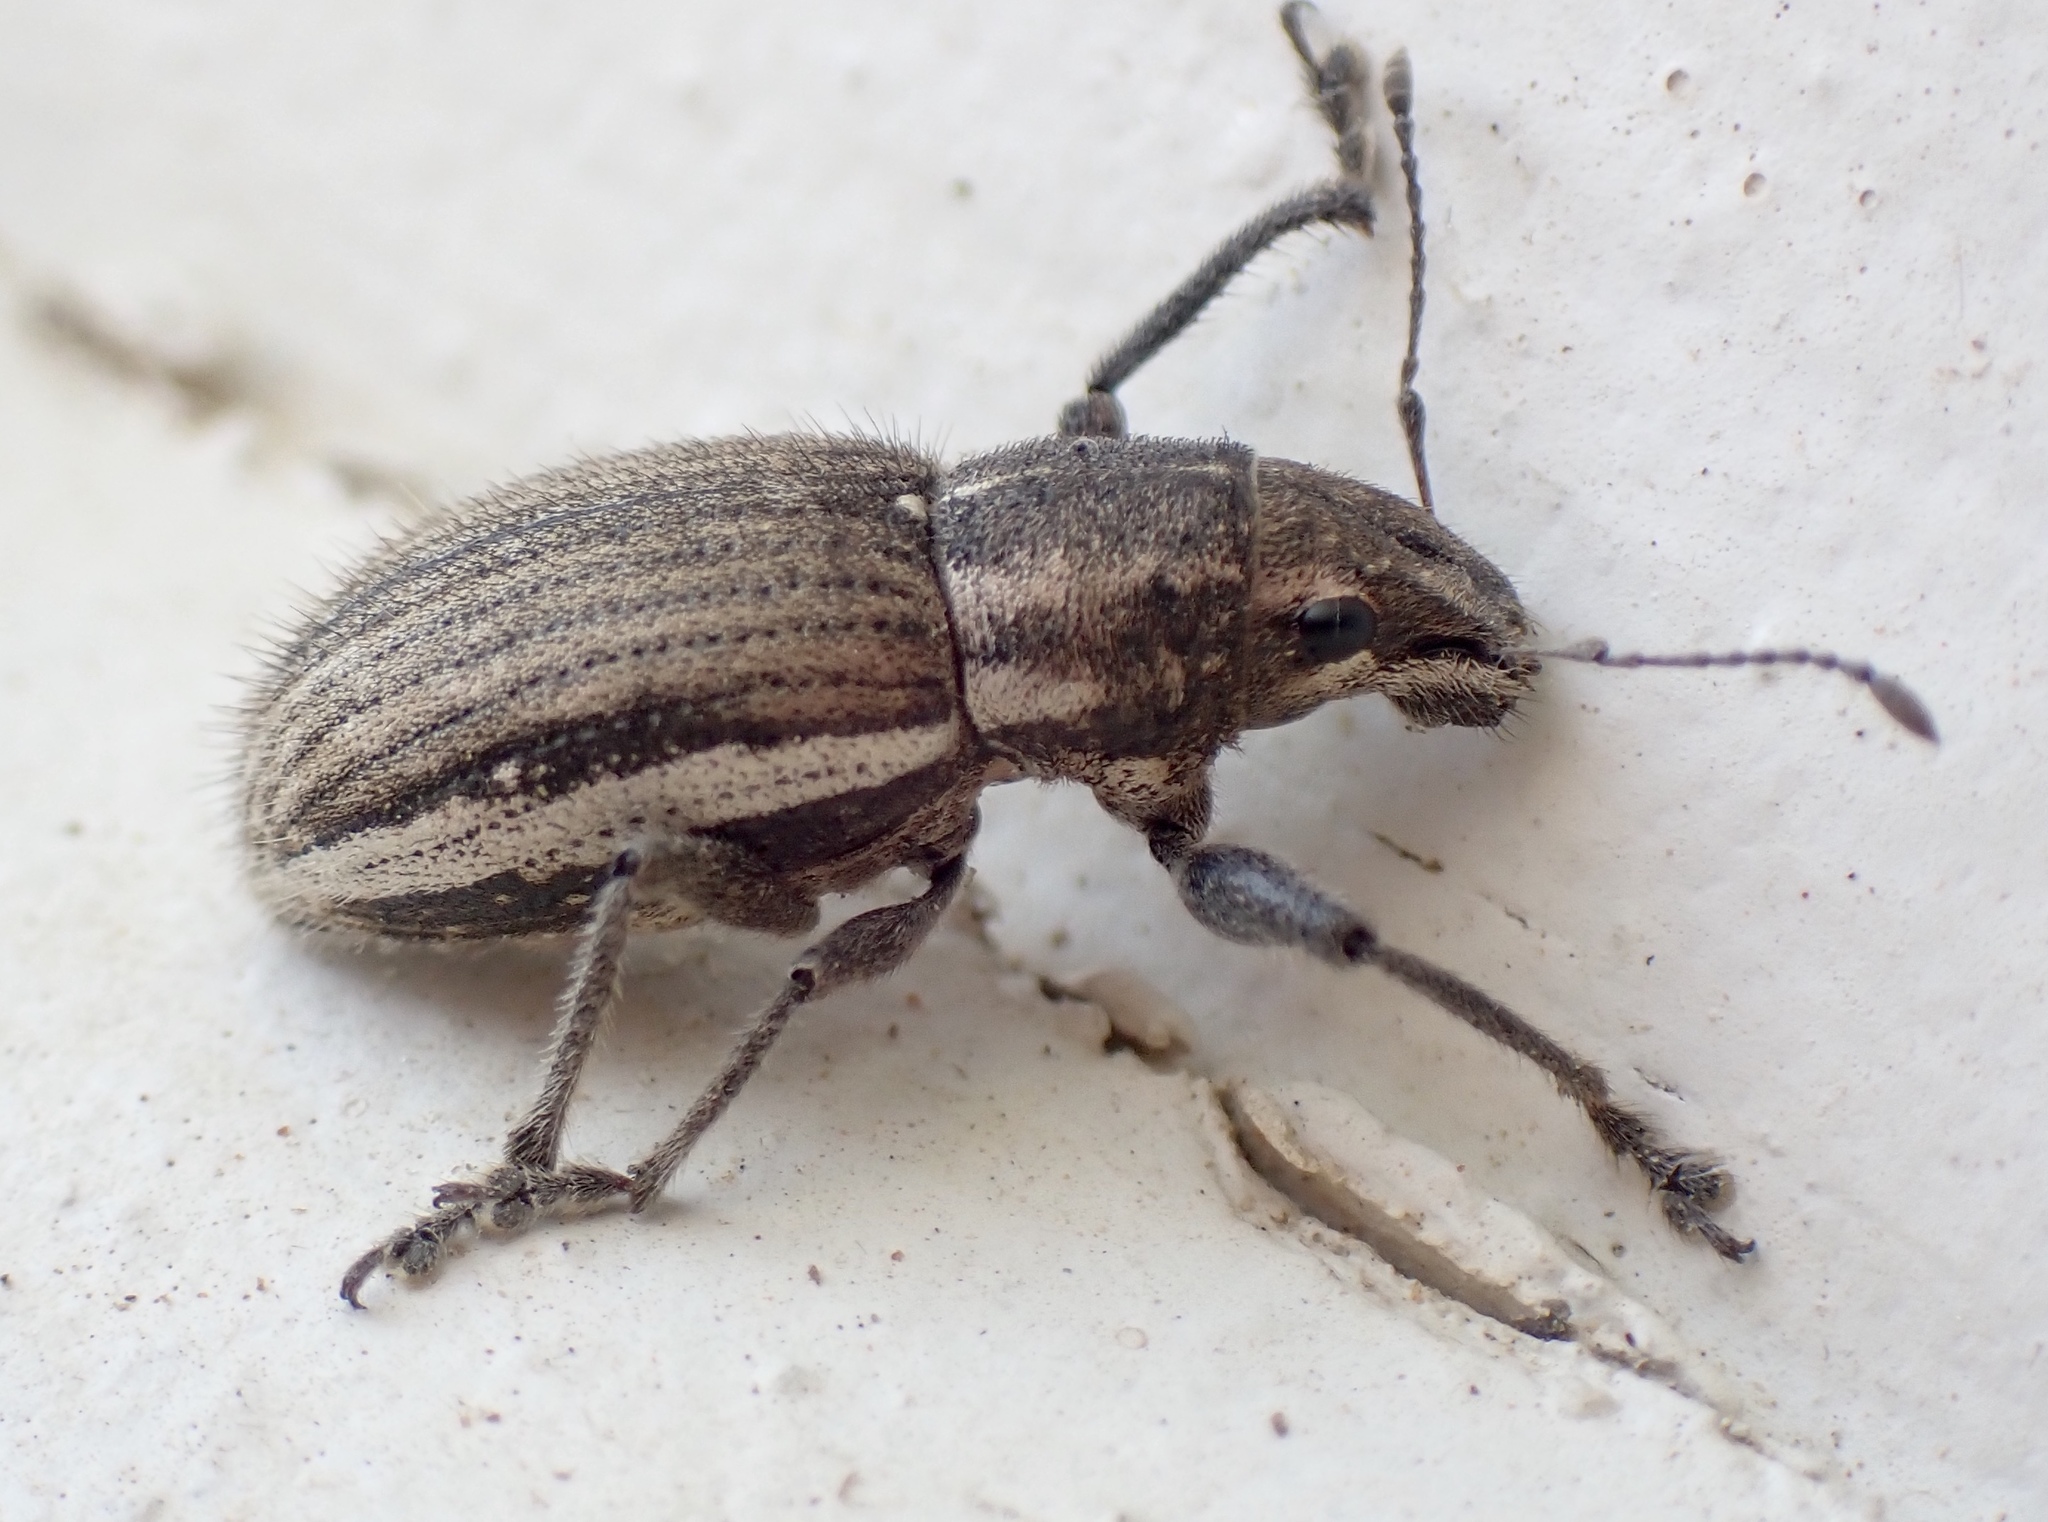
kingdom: Animalia
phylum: Arthropoda
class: Insecta
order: Coleoptera
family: Curculionidae
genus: Naupactus
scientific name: Naupactus leucoloma
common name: Whitefringed beetle
